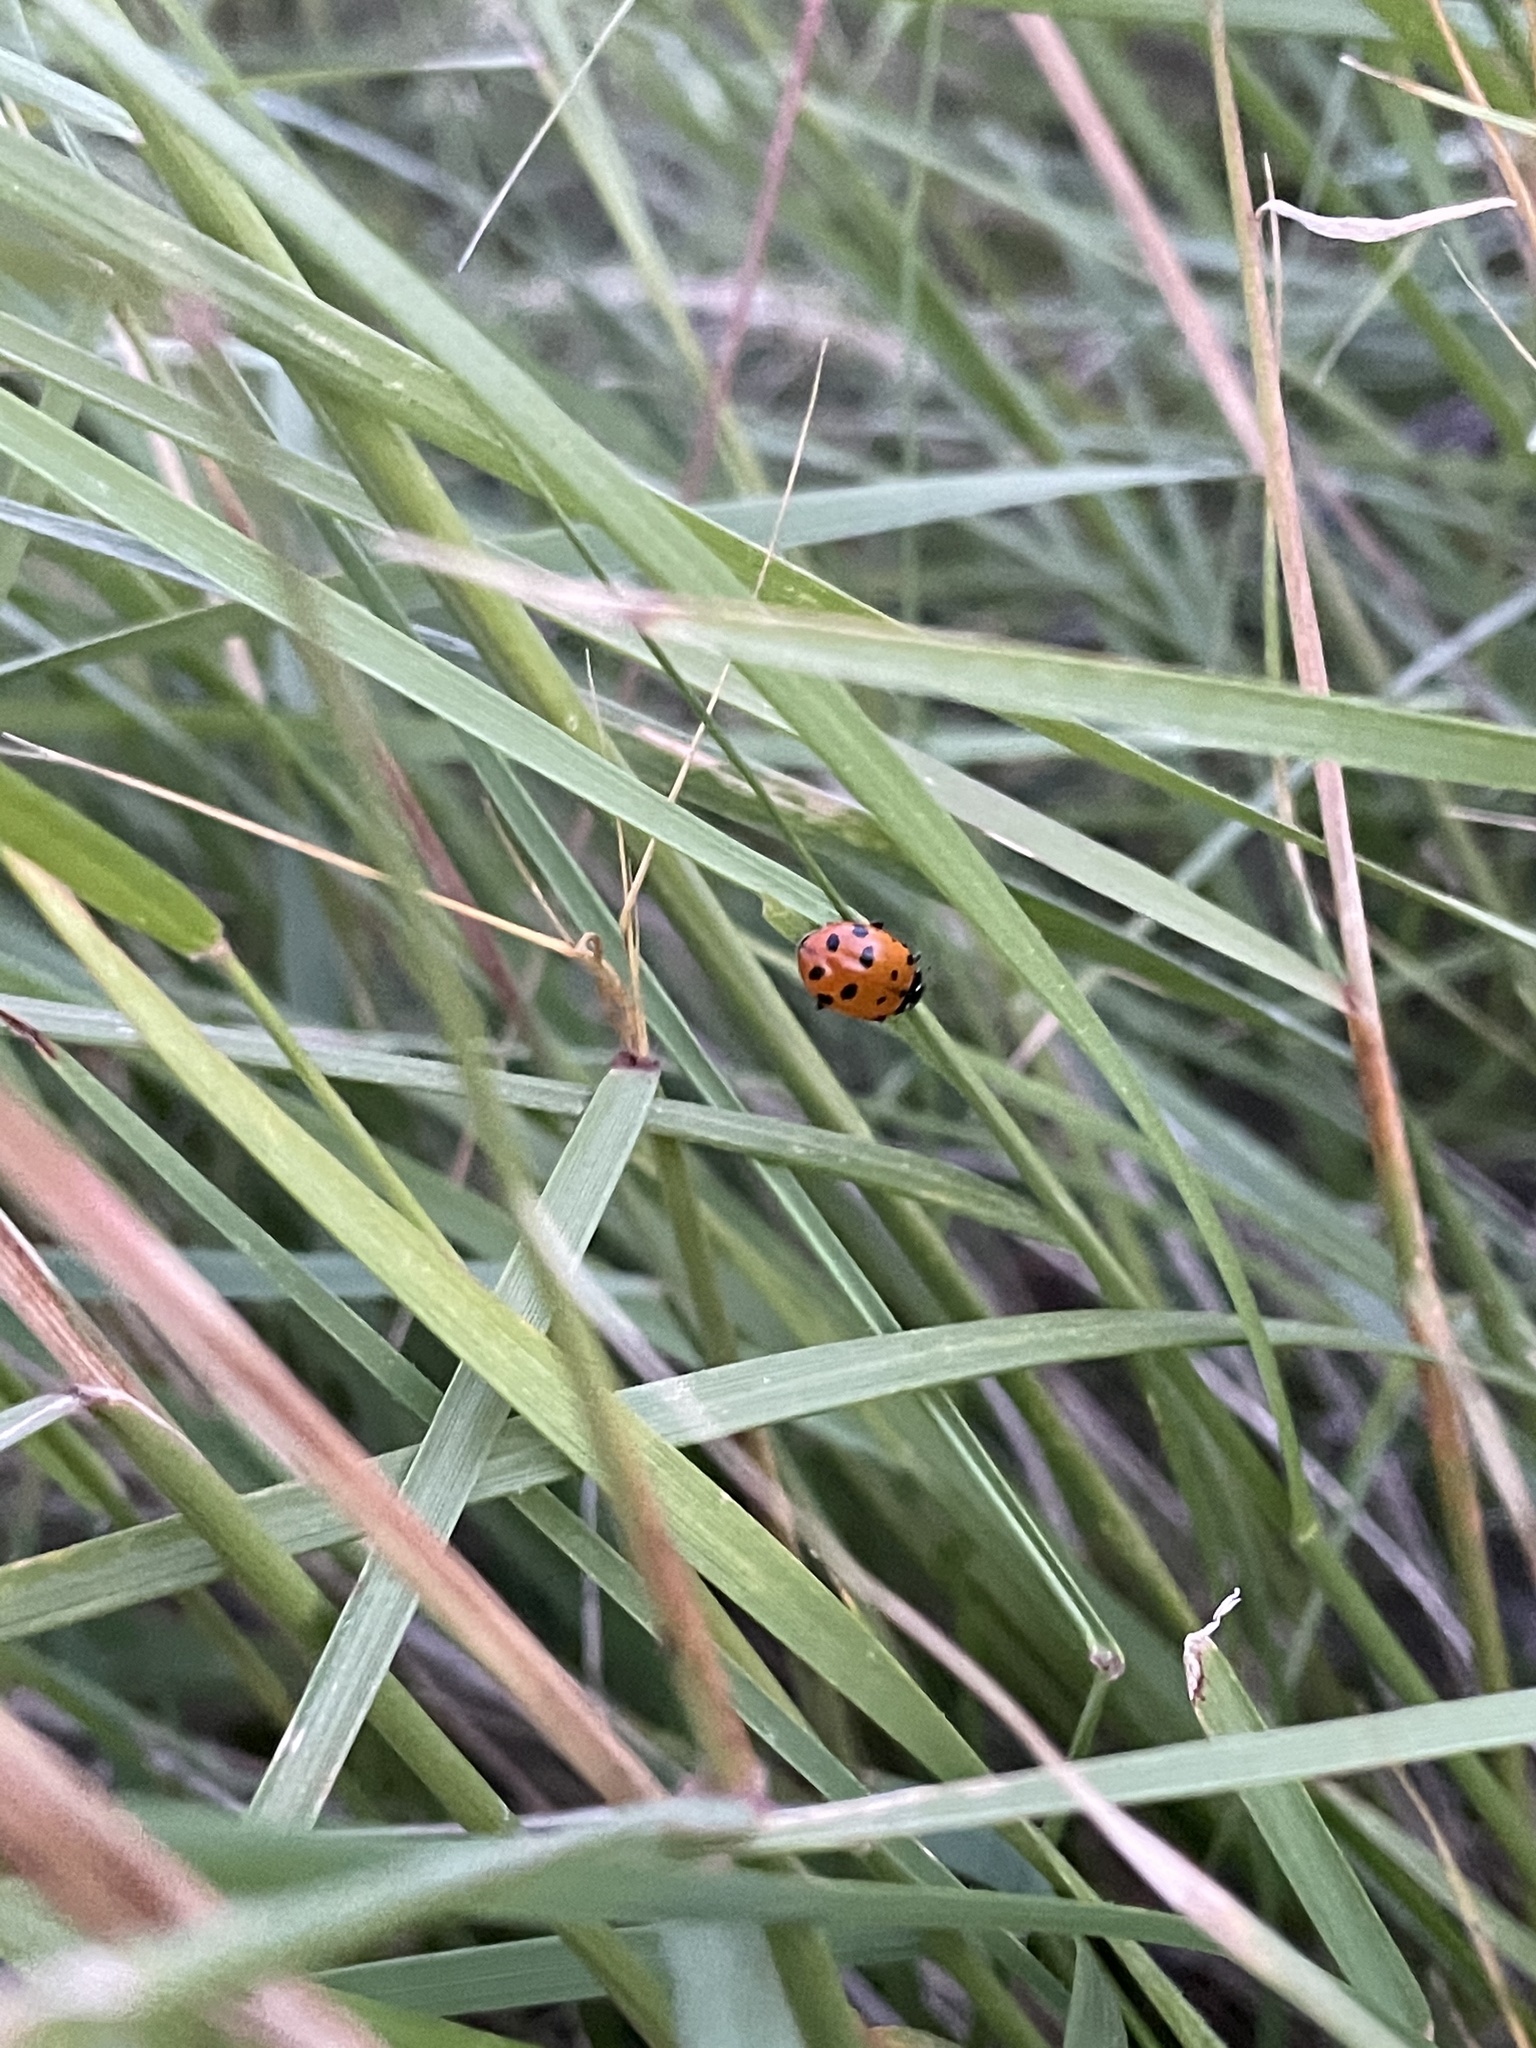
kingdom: Animalia
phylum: Arthropoda
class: Insecta
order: Coleoptera
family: Coccinellidae
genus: Hippodamia
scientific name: Hippodamia convergens
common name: Convergent lady beetle
